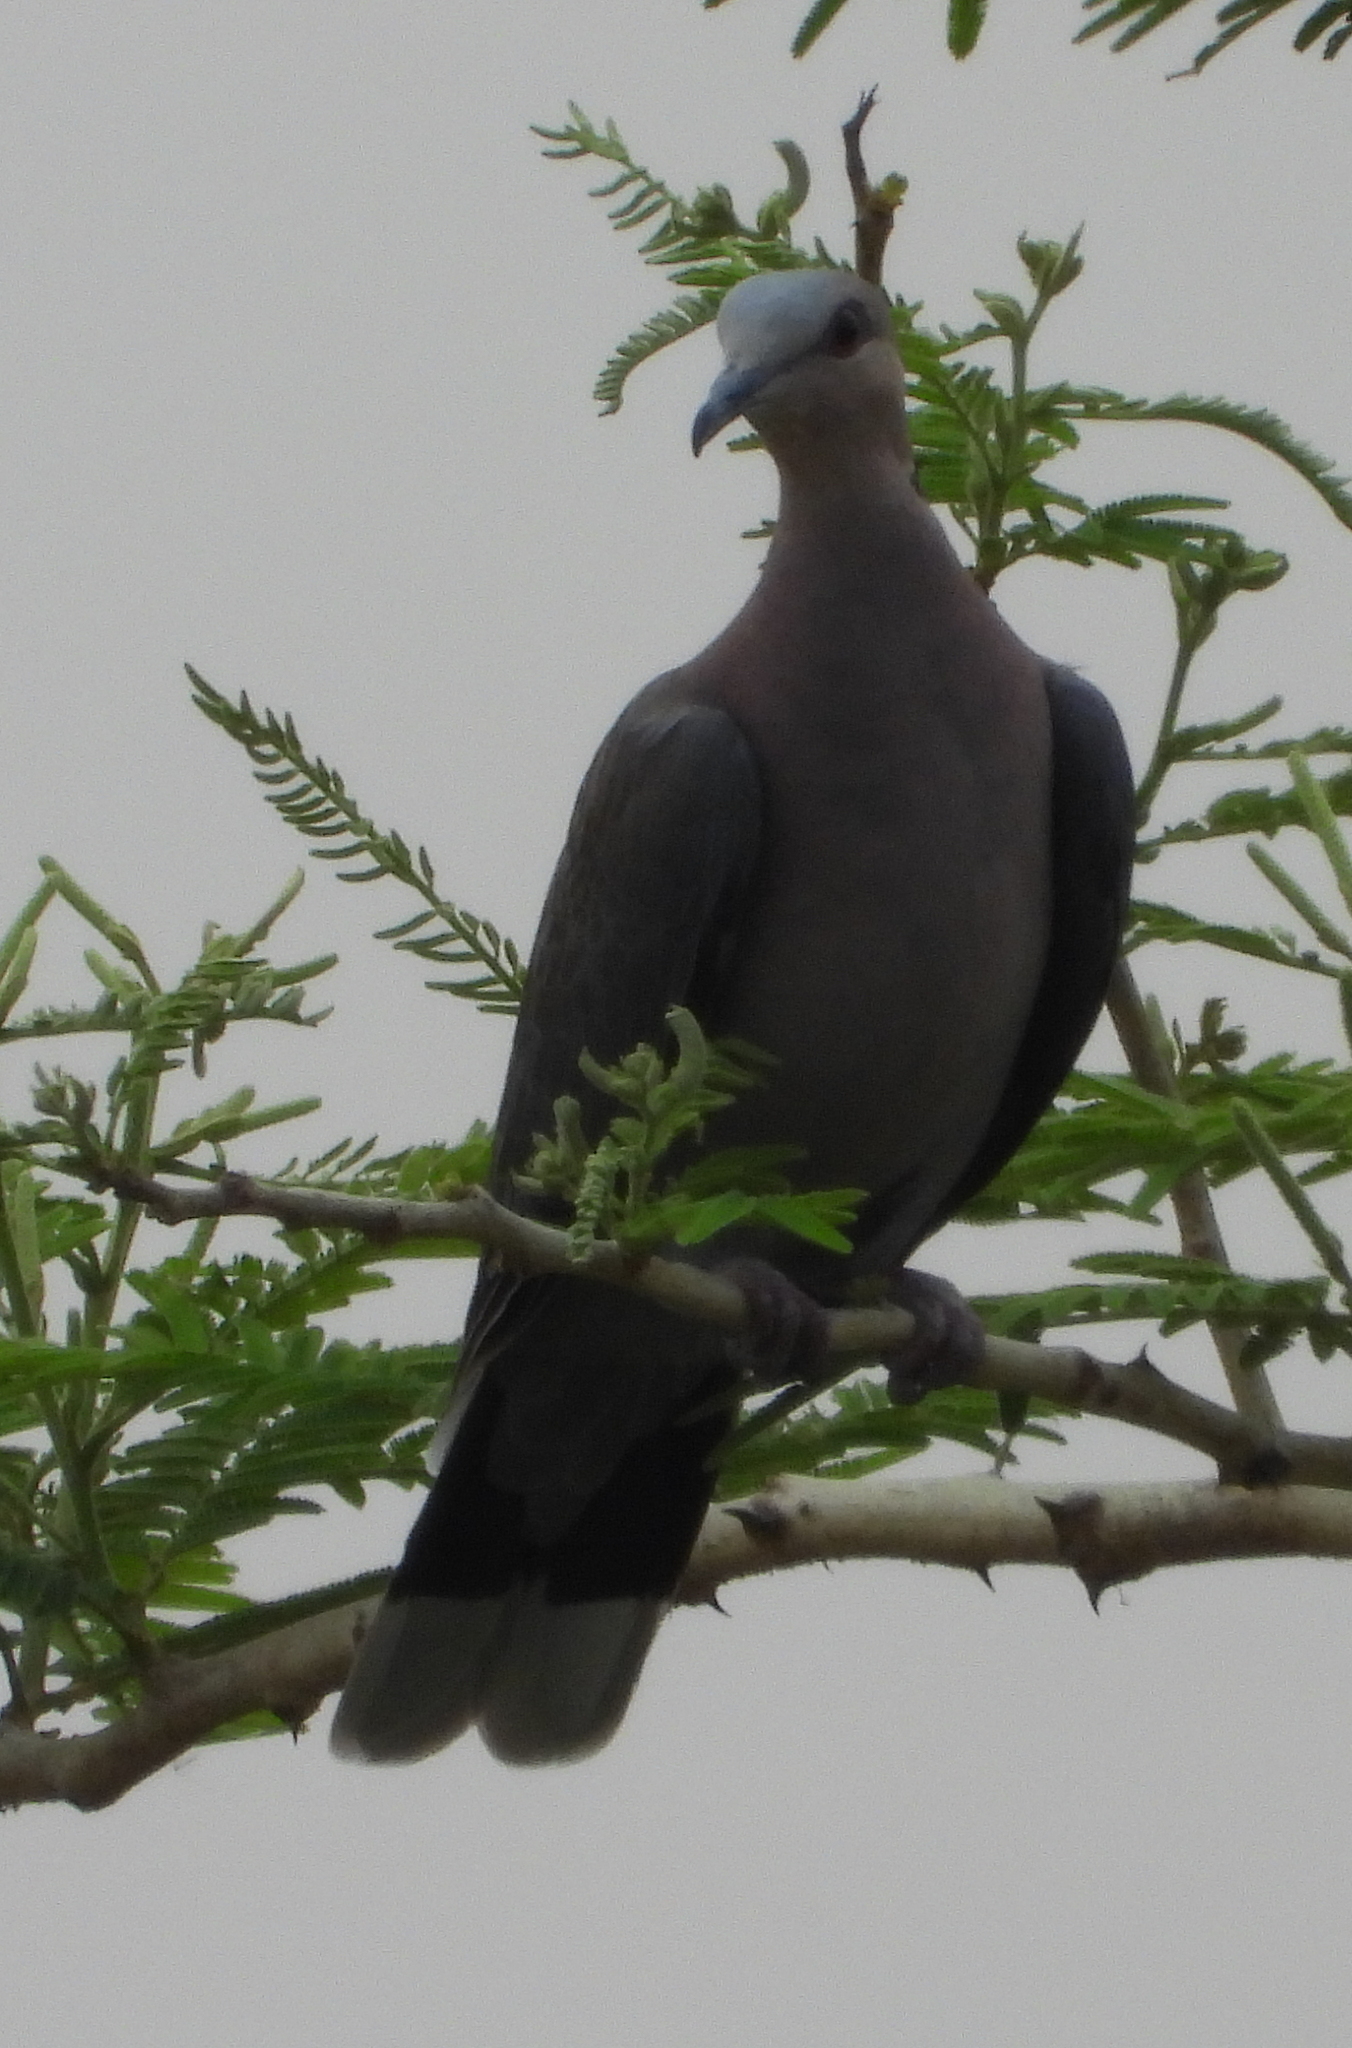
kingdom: Animalia
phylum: Chordata
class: Aves
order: Columbiformes
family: Columbidae
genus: Streptopelia
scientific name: Streptopelia semitorquata
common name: Red-eyed dove
